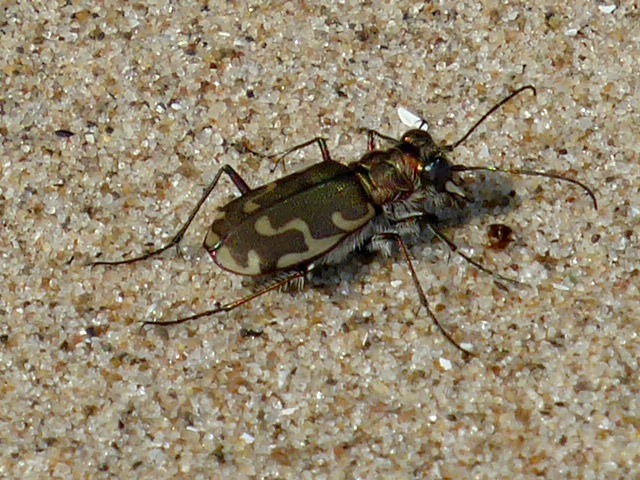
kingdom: Animalia
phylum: Arthropoda
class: Insecta
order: Coleoptera
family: Carabidae
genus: Cicindela
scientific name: Cicindela repanda
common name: Bronzed tiger beetle
